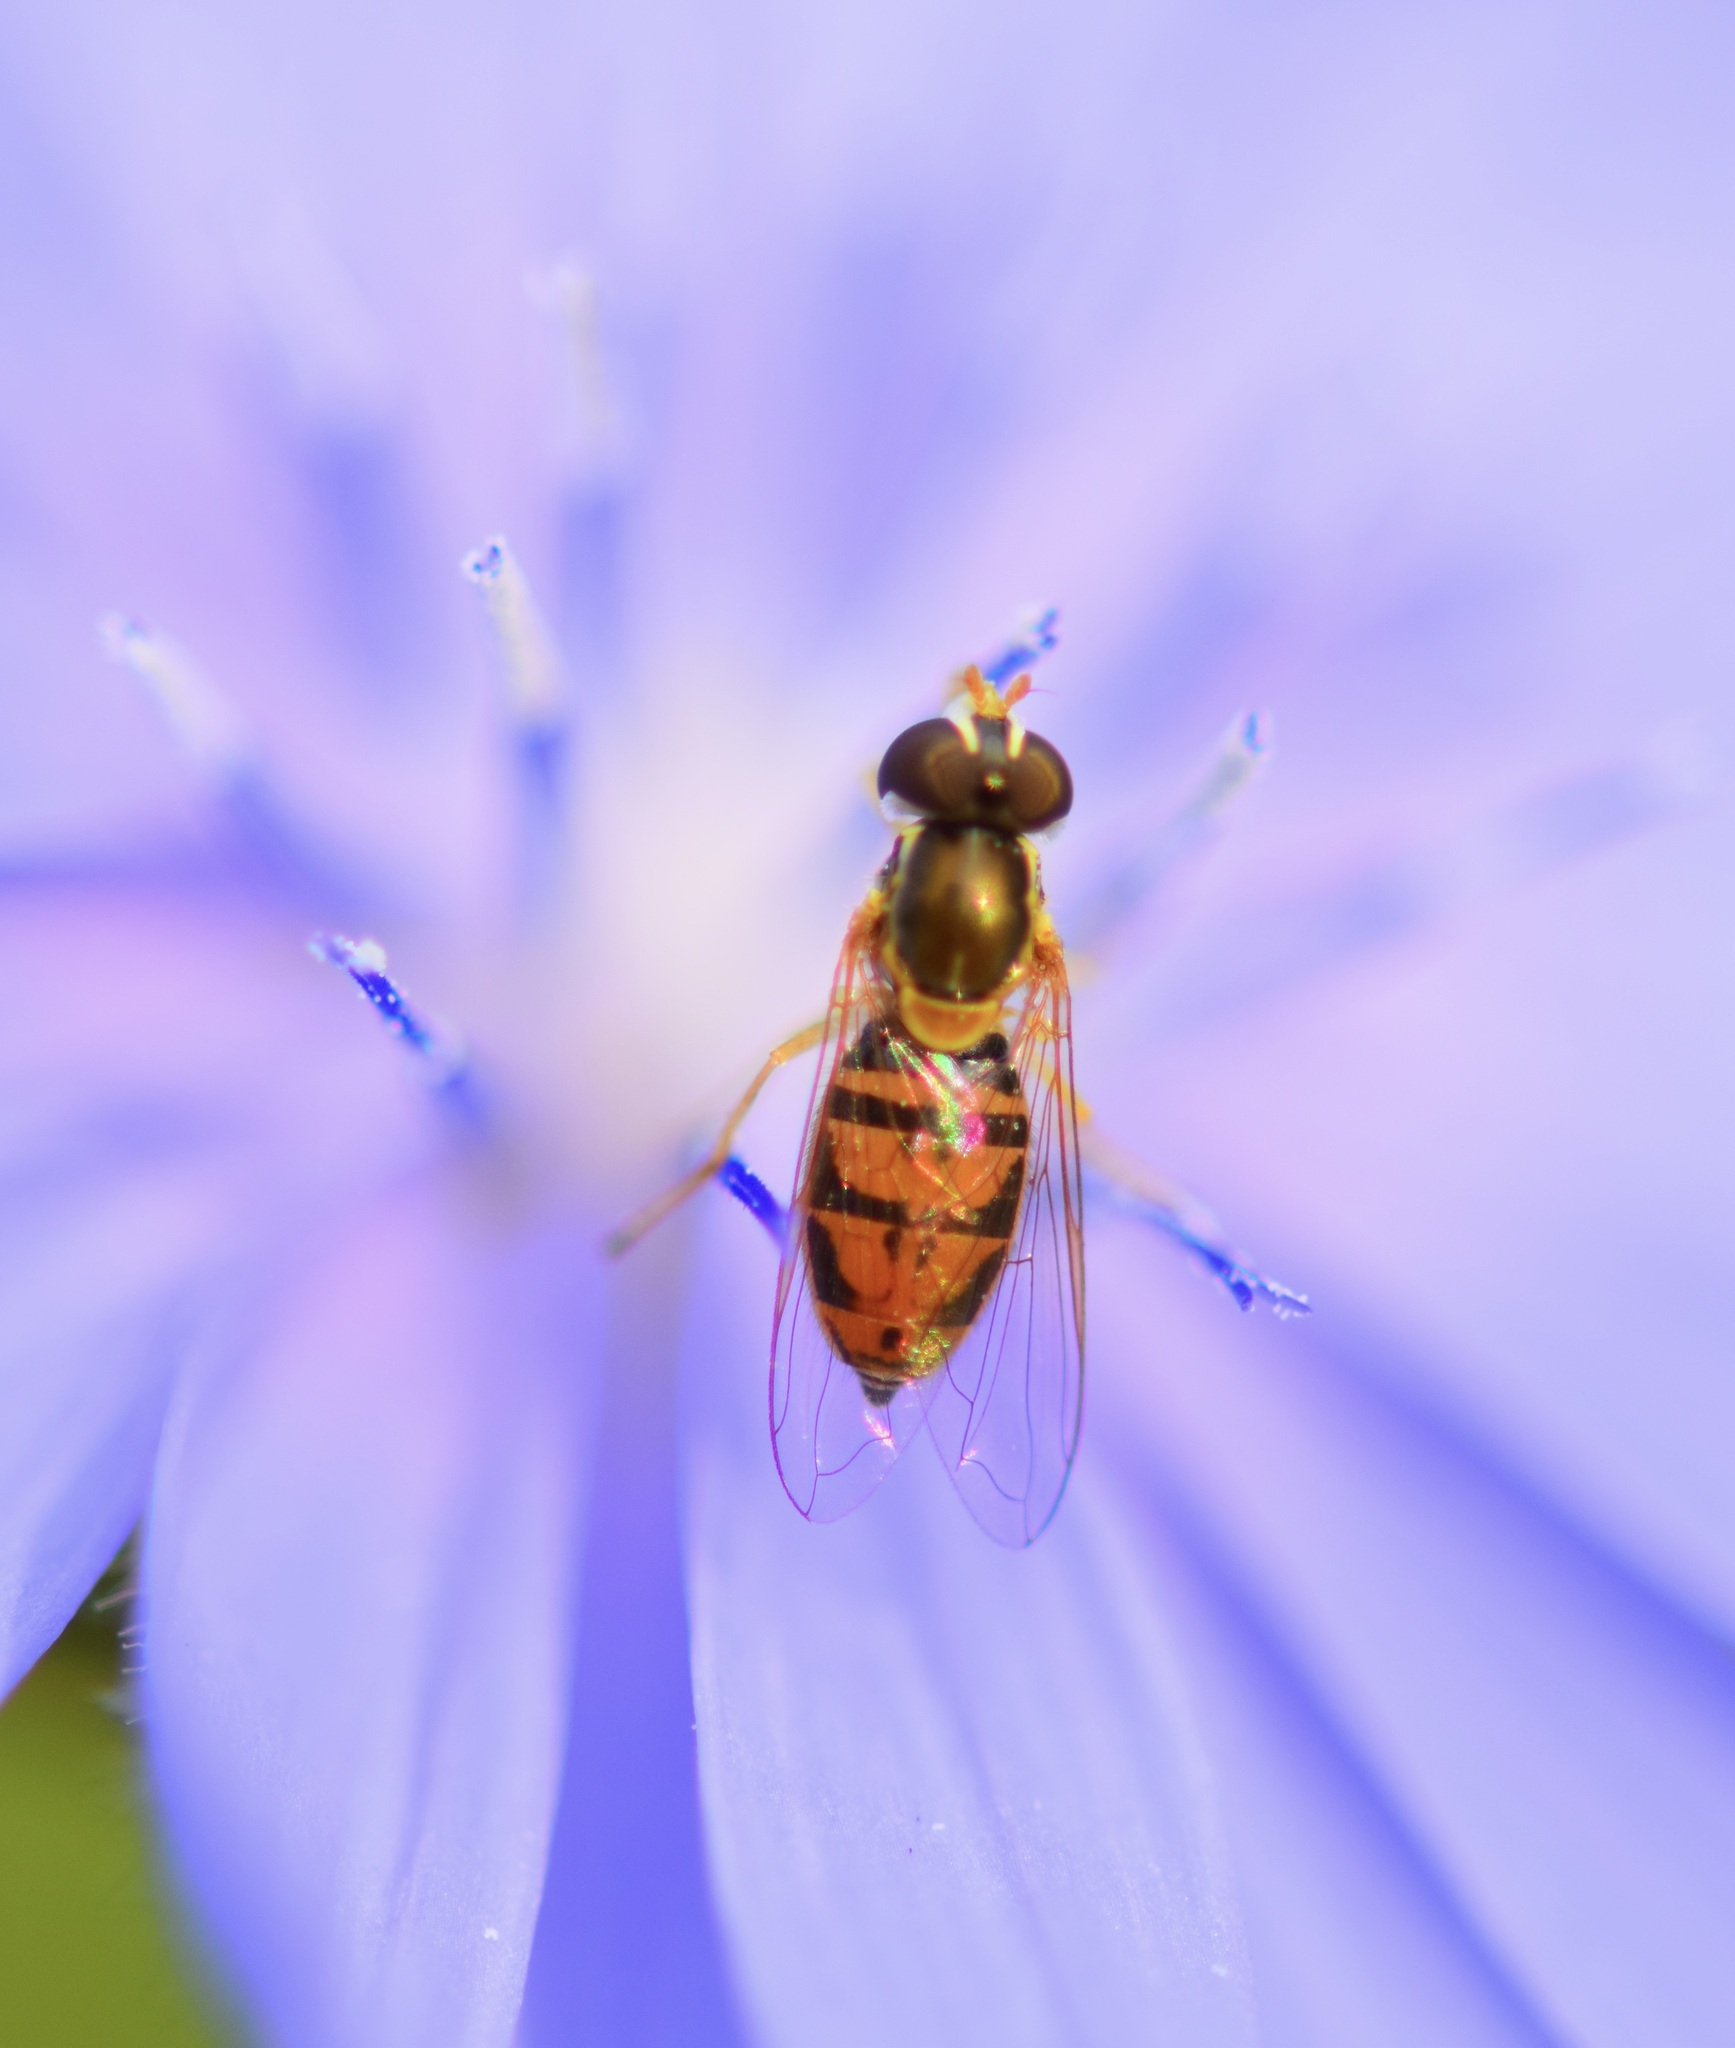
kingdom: Animalia
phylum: Arthropoda
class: Insecta
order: Diptera
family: Syrphidae
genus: Toxomerus
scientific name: Toxomerus marginatus
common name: Syrphid fly
